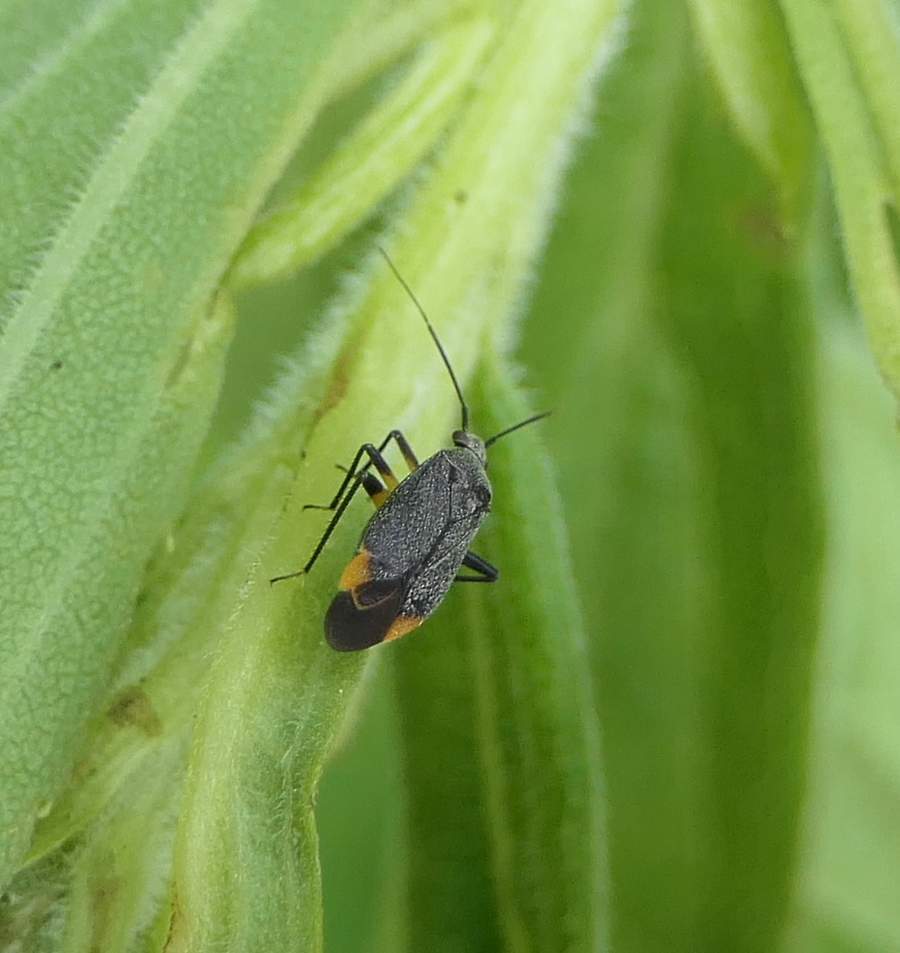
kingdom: Animalia
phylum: Arthropoda
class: Insecta
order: Hemiptera
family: Miridae
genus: Polymerus
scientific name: Polymerus venaticus
